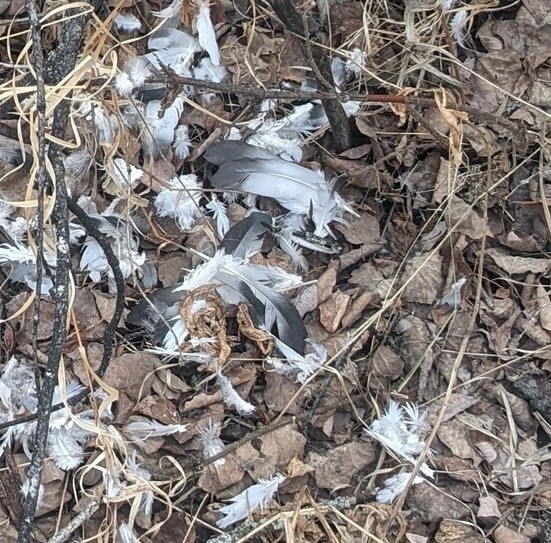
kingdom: Animalia
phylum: Chordata
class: Aves
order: Columbiformes
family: Columbidae
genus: Columba
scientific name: Columba livia
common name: Rock pigeon
